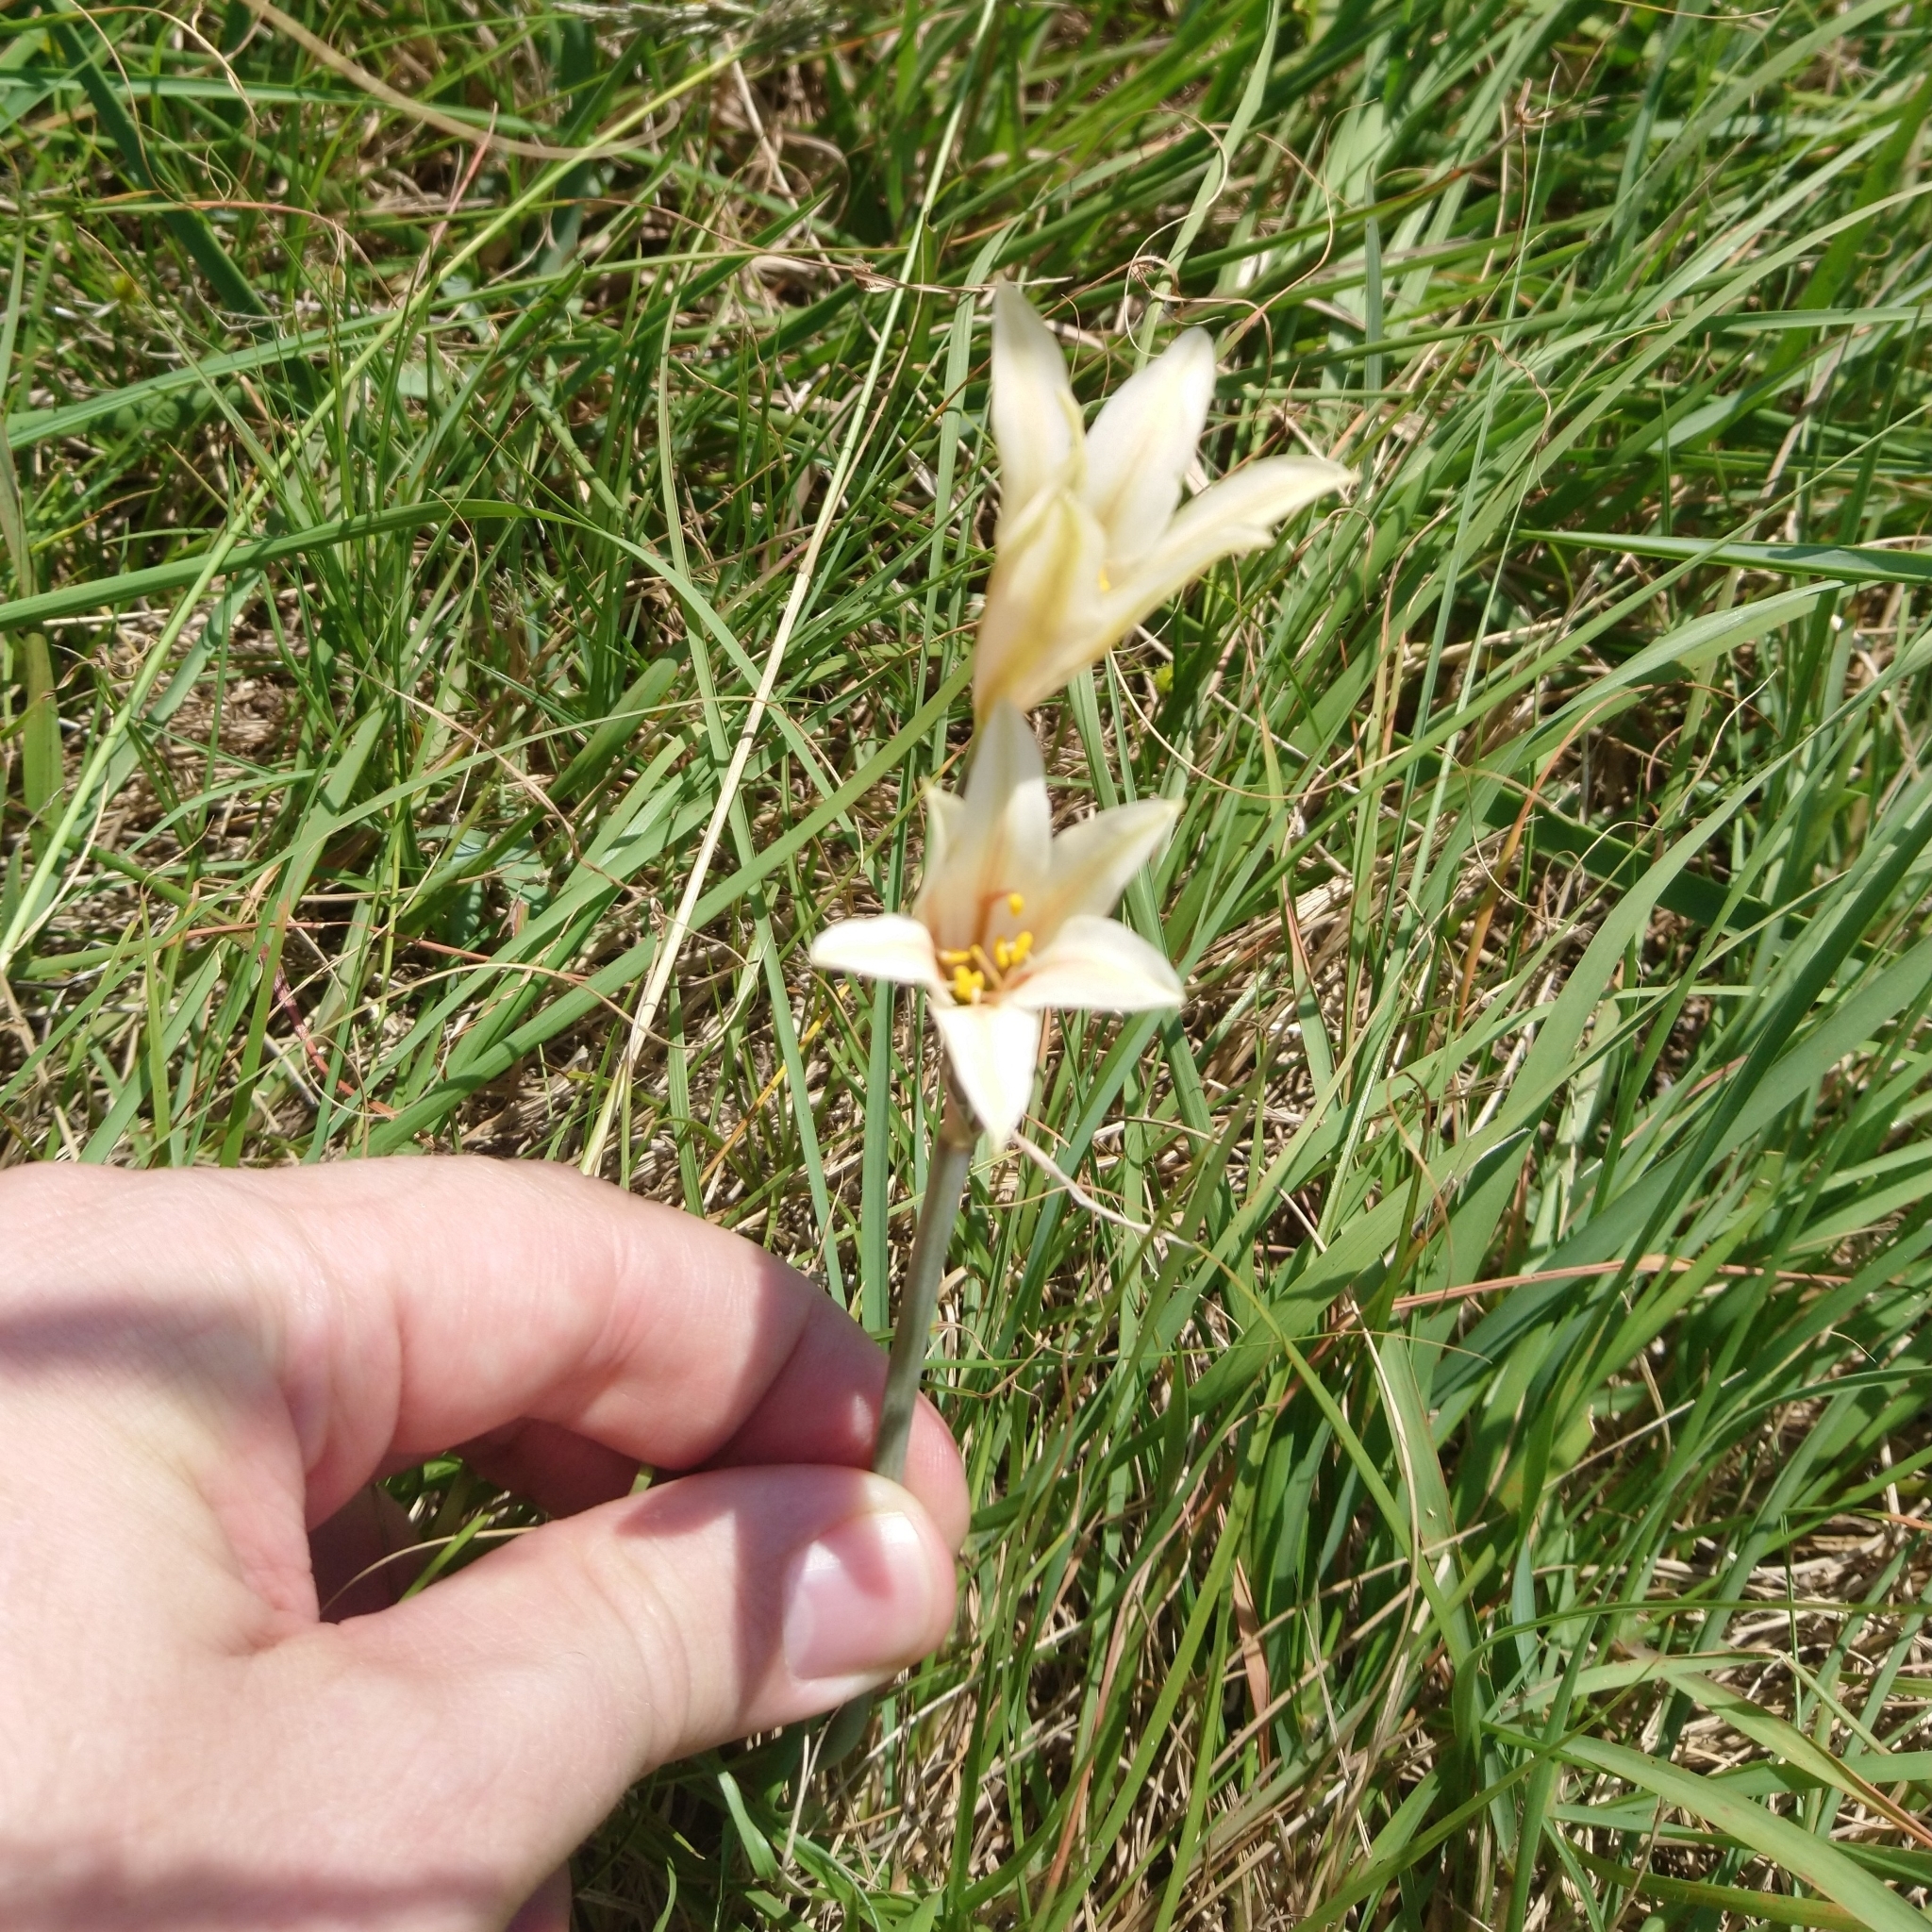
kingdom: Plantae
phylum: Tracheophyta
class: Liliopsida
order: Asparagales
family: Amaryllidaceae
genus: Cyrtanthus
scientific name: Cyrtanthus loddigesianus
